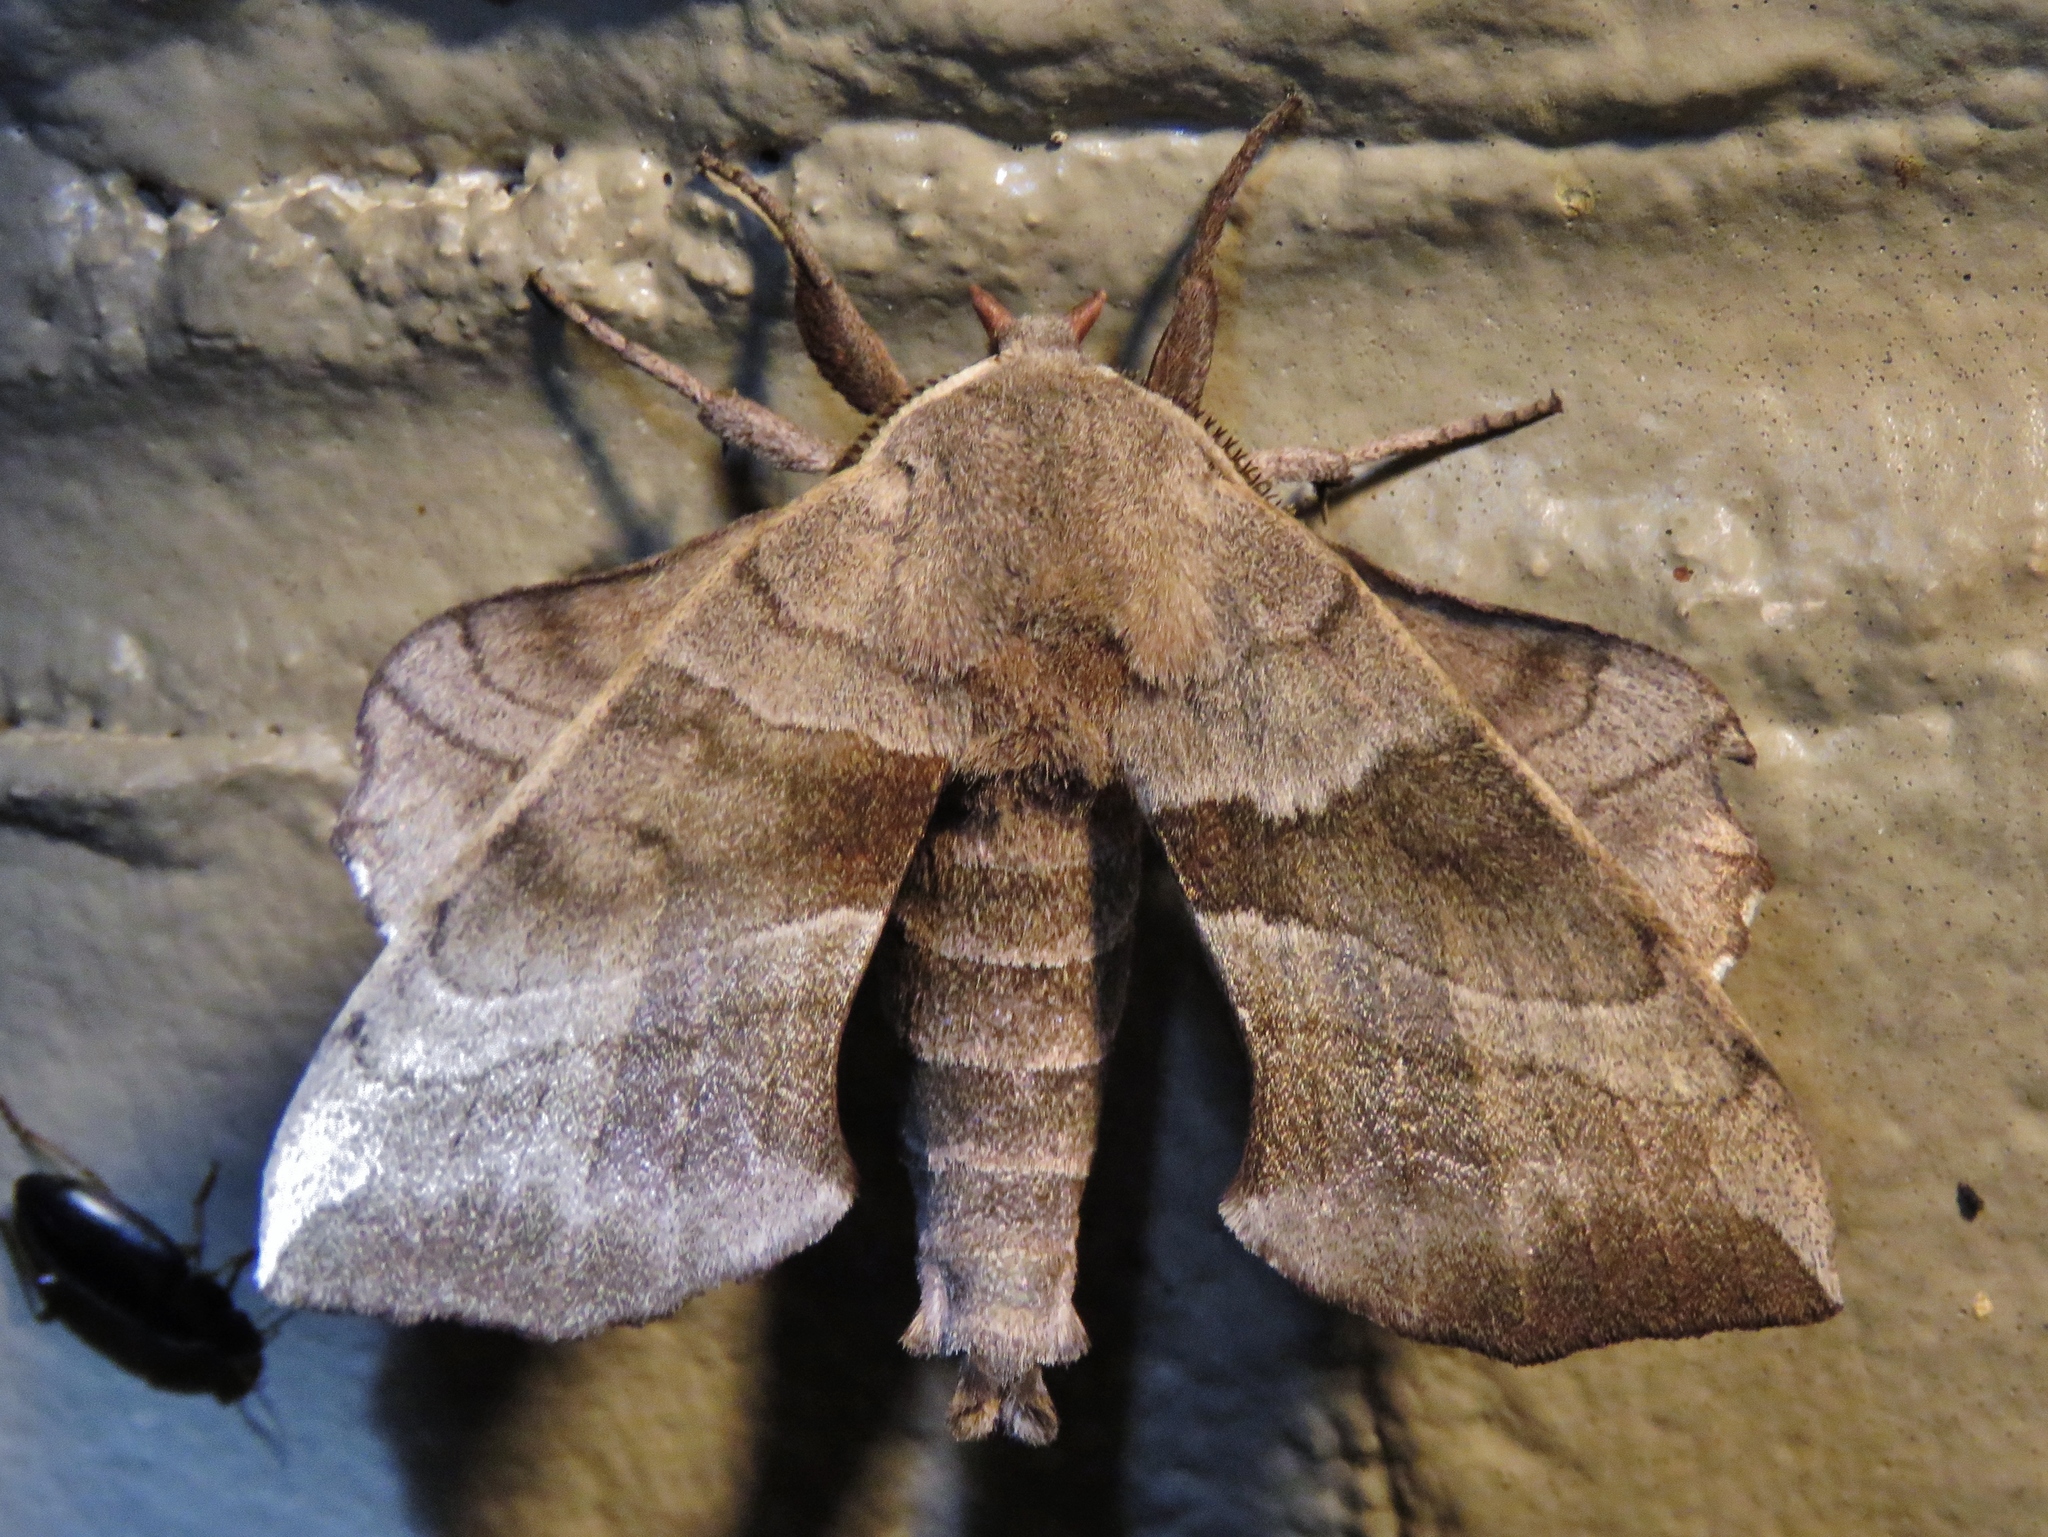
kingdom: Animalia
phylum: Arthropoda
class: Insecta
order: Lepidoptera
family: Sphingidae
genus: Amorpha
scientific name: Amorpha juglandis
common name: Walnut sphinx
